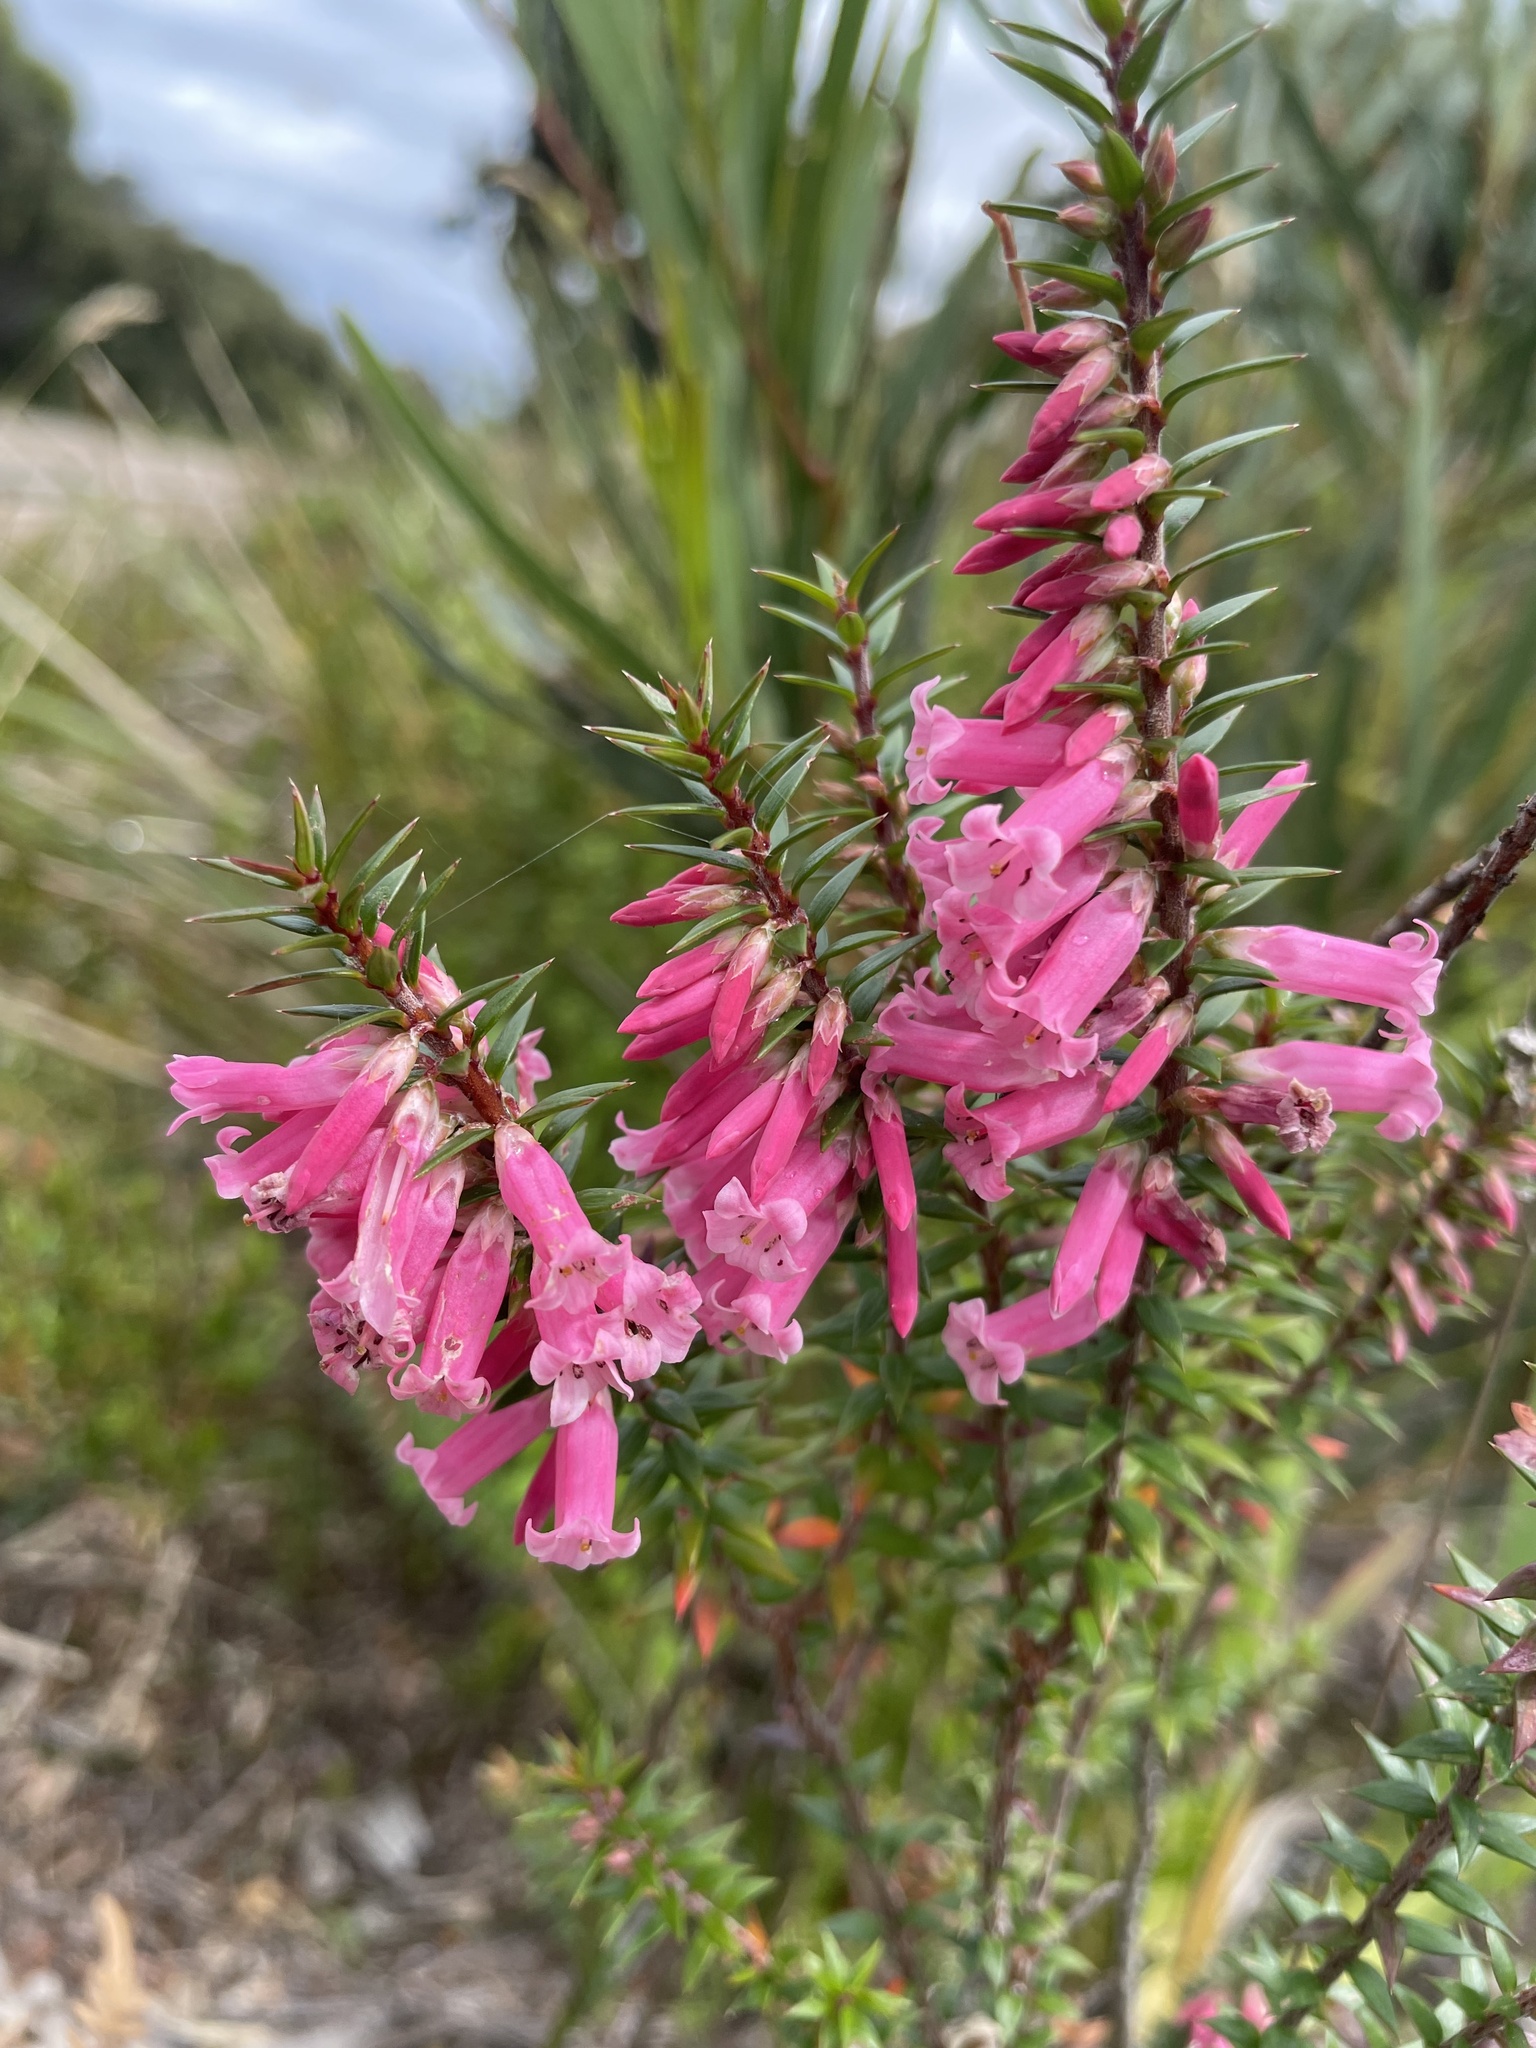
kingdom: Plantae
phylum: Tracheophyta
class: Magnoliopsida
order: Ericales
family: Ericaceae
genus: Epacris
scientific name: Epacris impressa
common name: Common-heath
